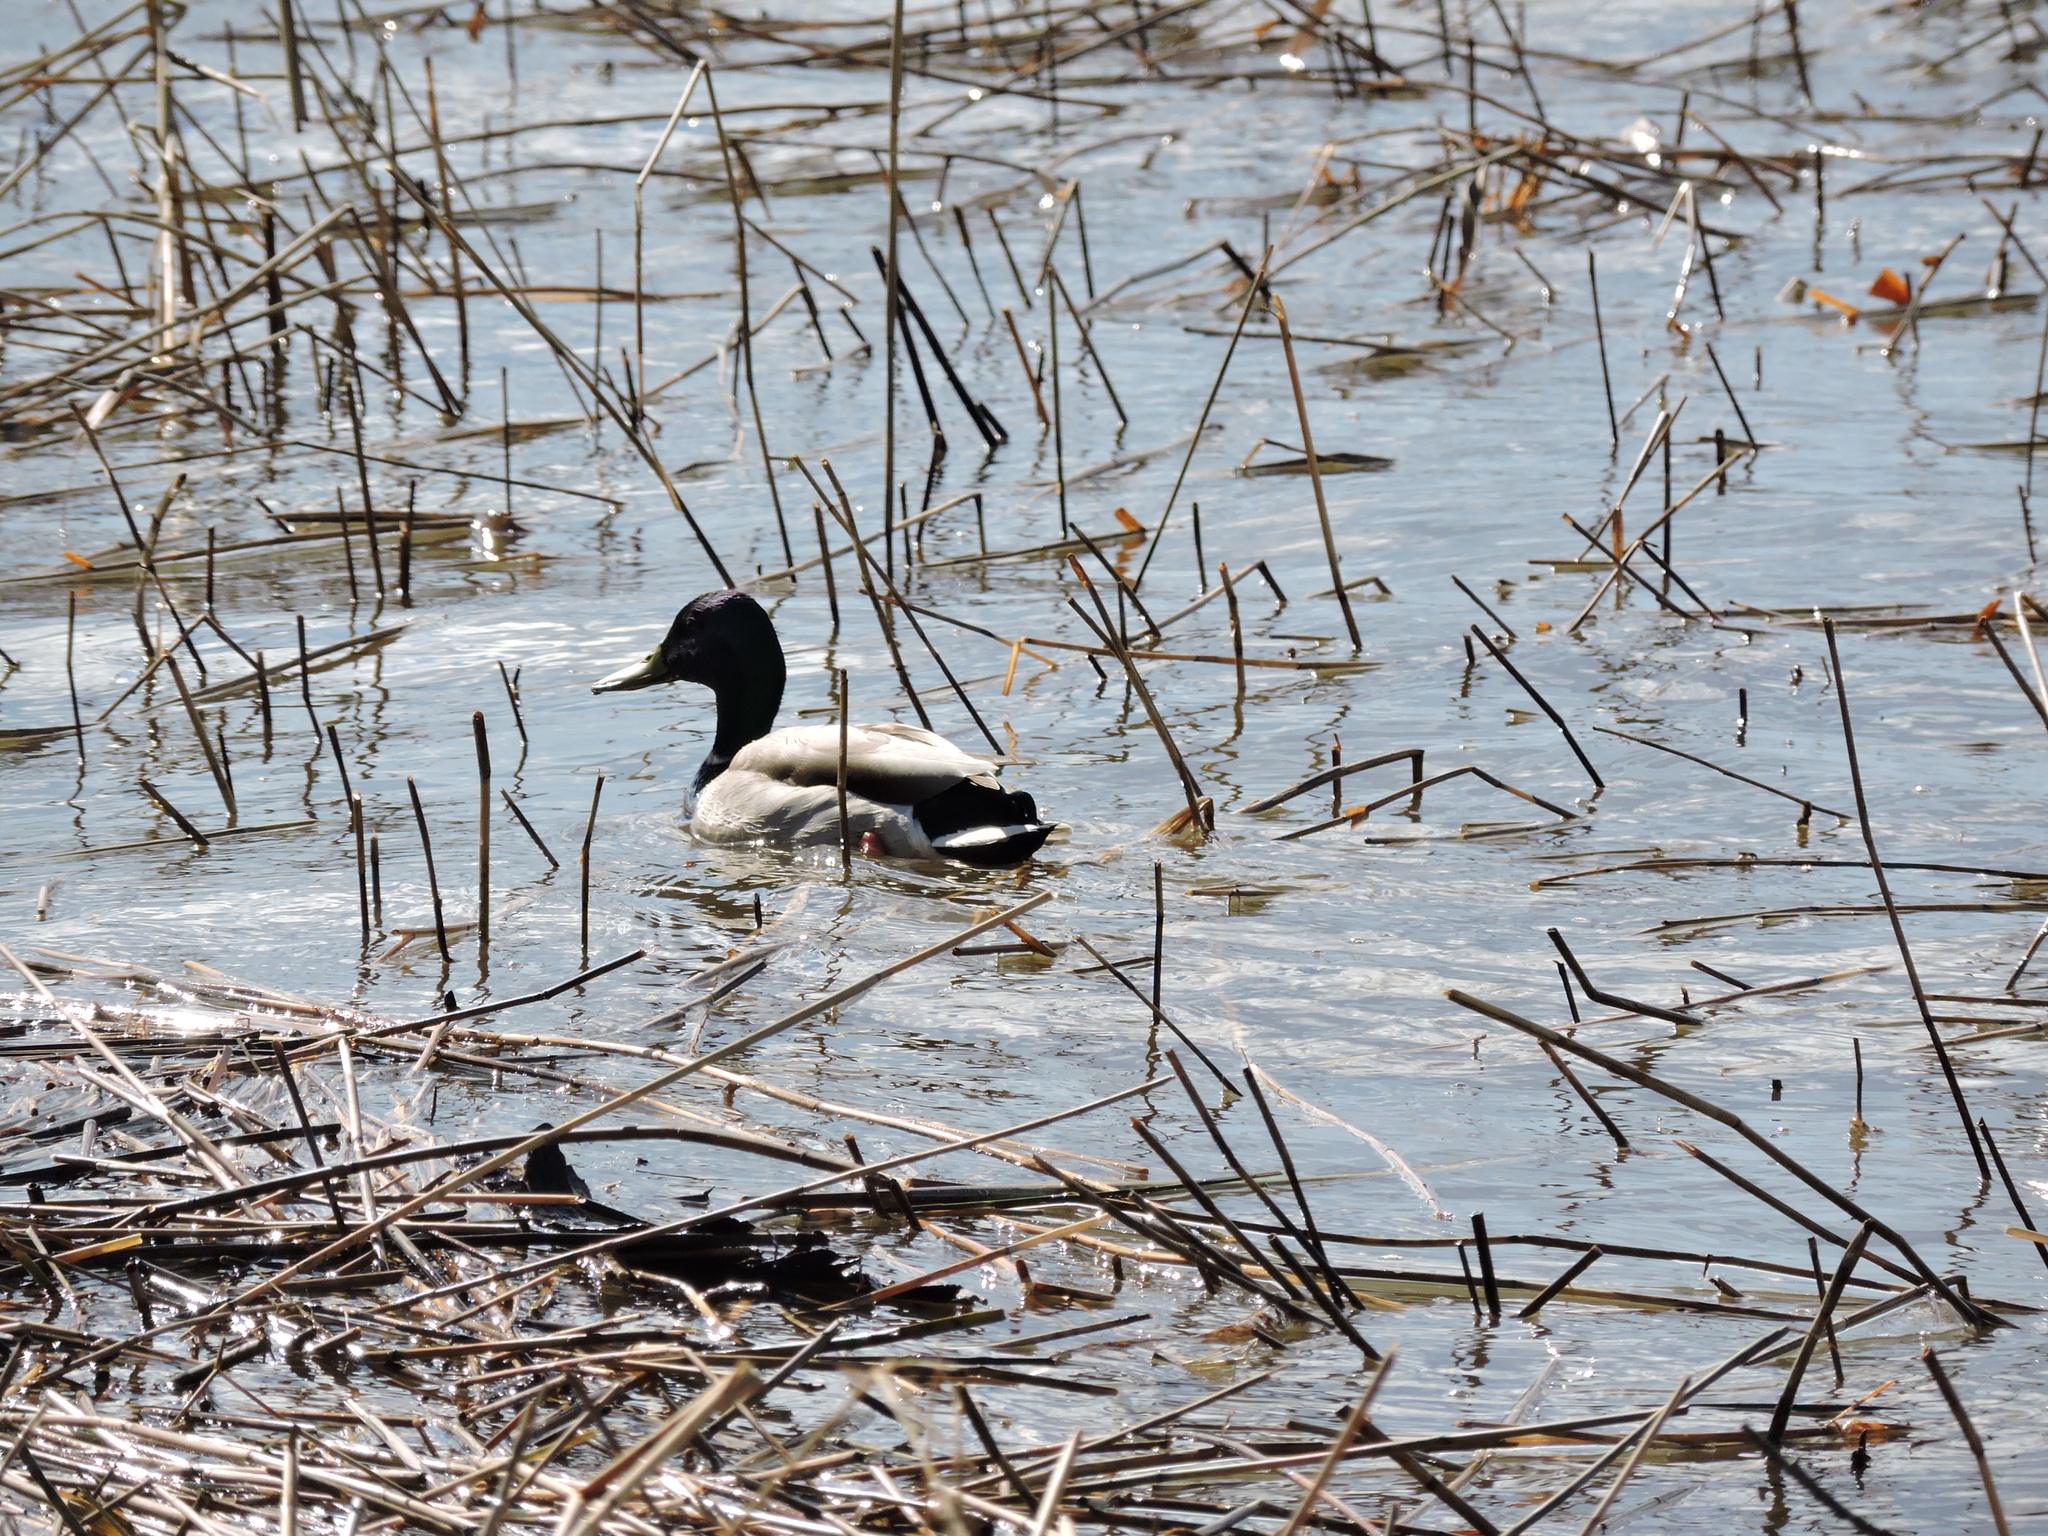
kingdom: Animalia
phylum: Chordata
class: Aves
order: Anseriformes
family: Anatidae
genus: Anas
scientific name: Anas platyrhynchos
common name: Mallard
